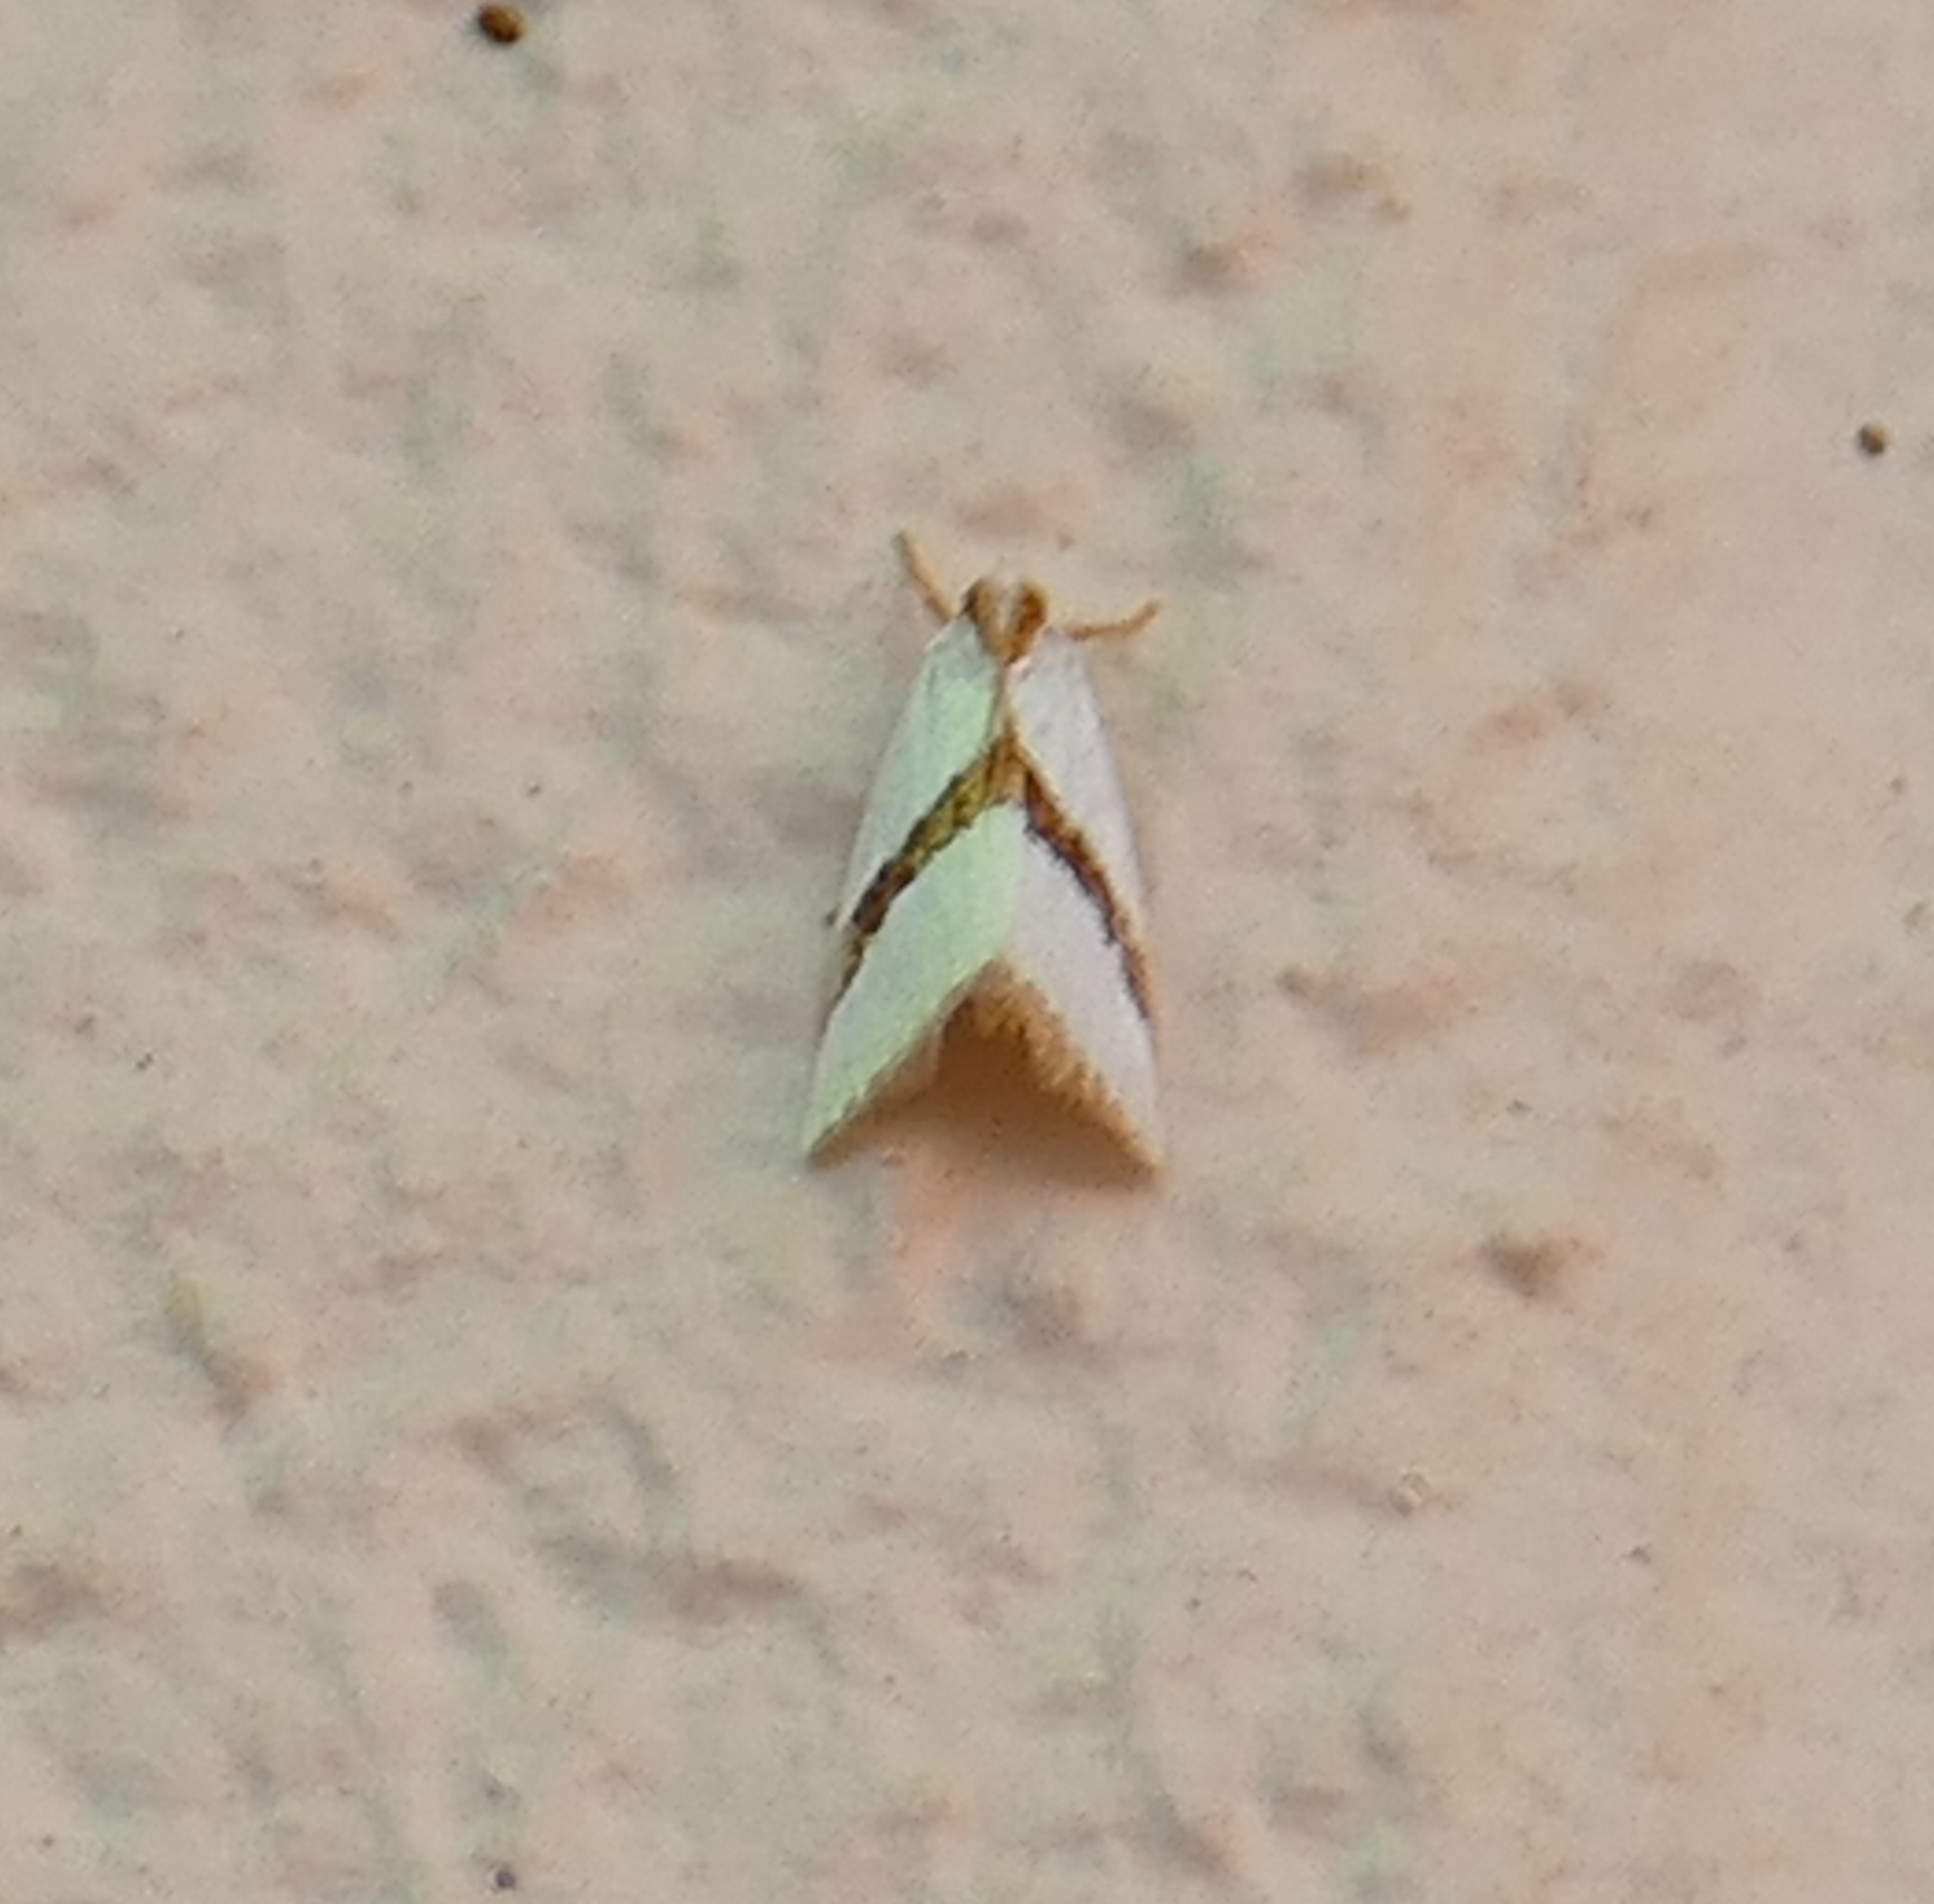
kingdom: Animalia
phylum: Arthropoda
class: Insecta
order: Lepidoptera
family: Crambidae
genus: Vaxi
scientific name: Vaxi critica
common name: Straight-lined vaxi moth
